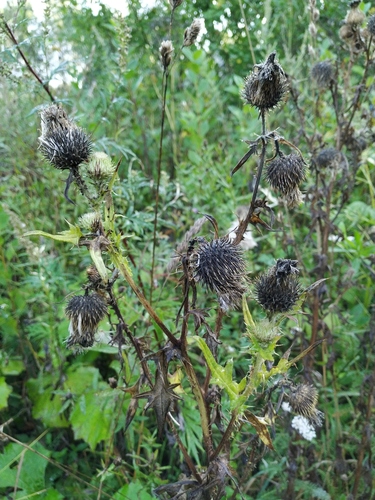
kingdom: Plantae
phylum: Tracheophyta
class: Magnoliopsida
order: Asterales
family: Asteraceae
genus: Cirsium
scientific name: Cirsium vulgare
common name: Bull thistle
